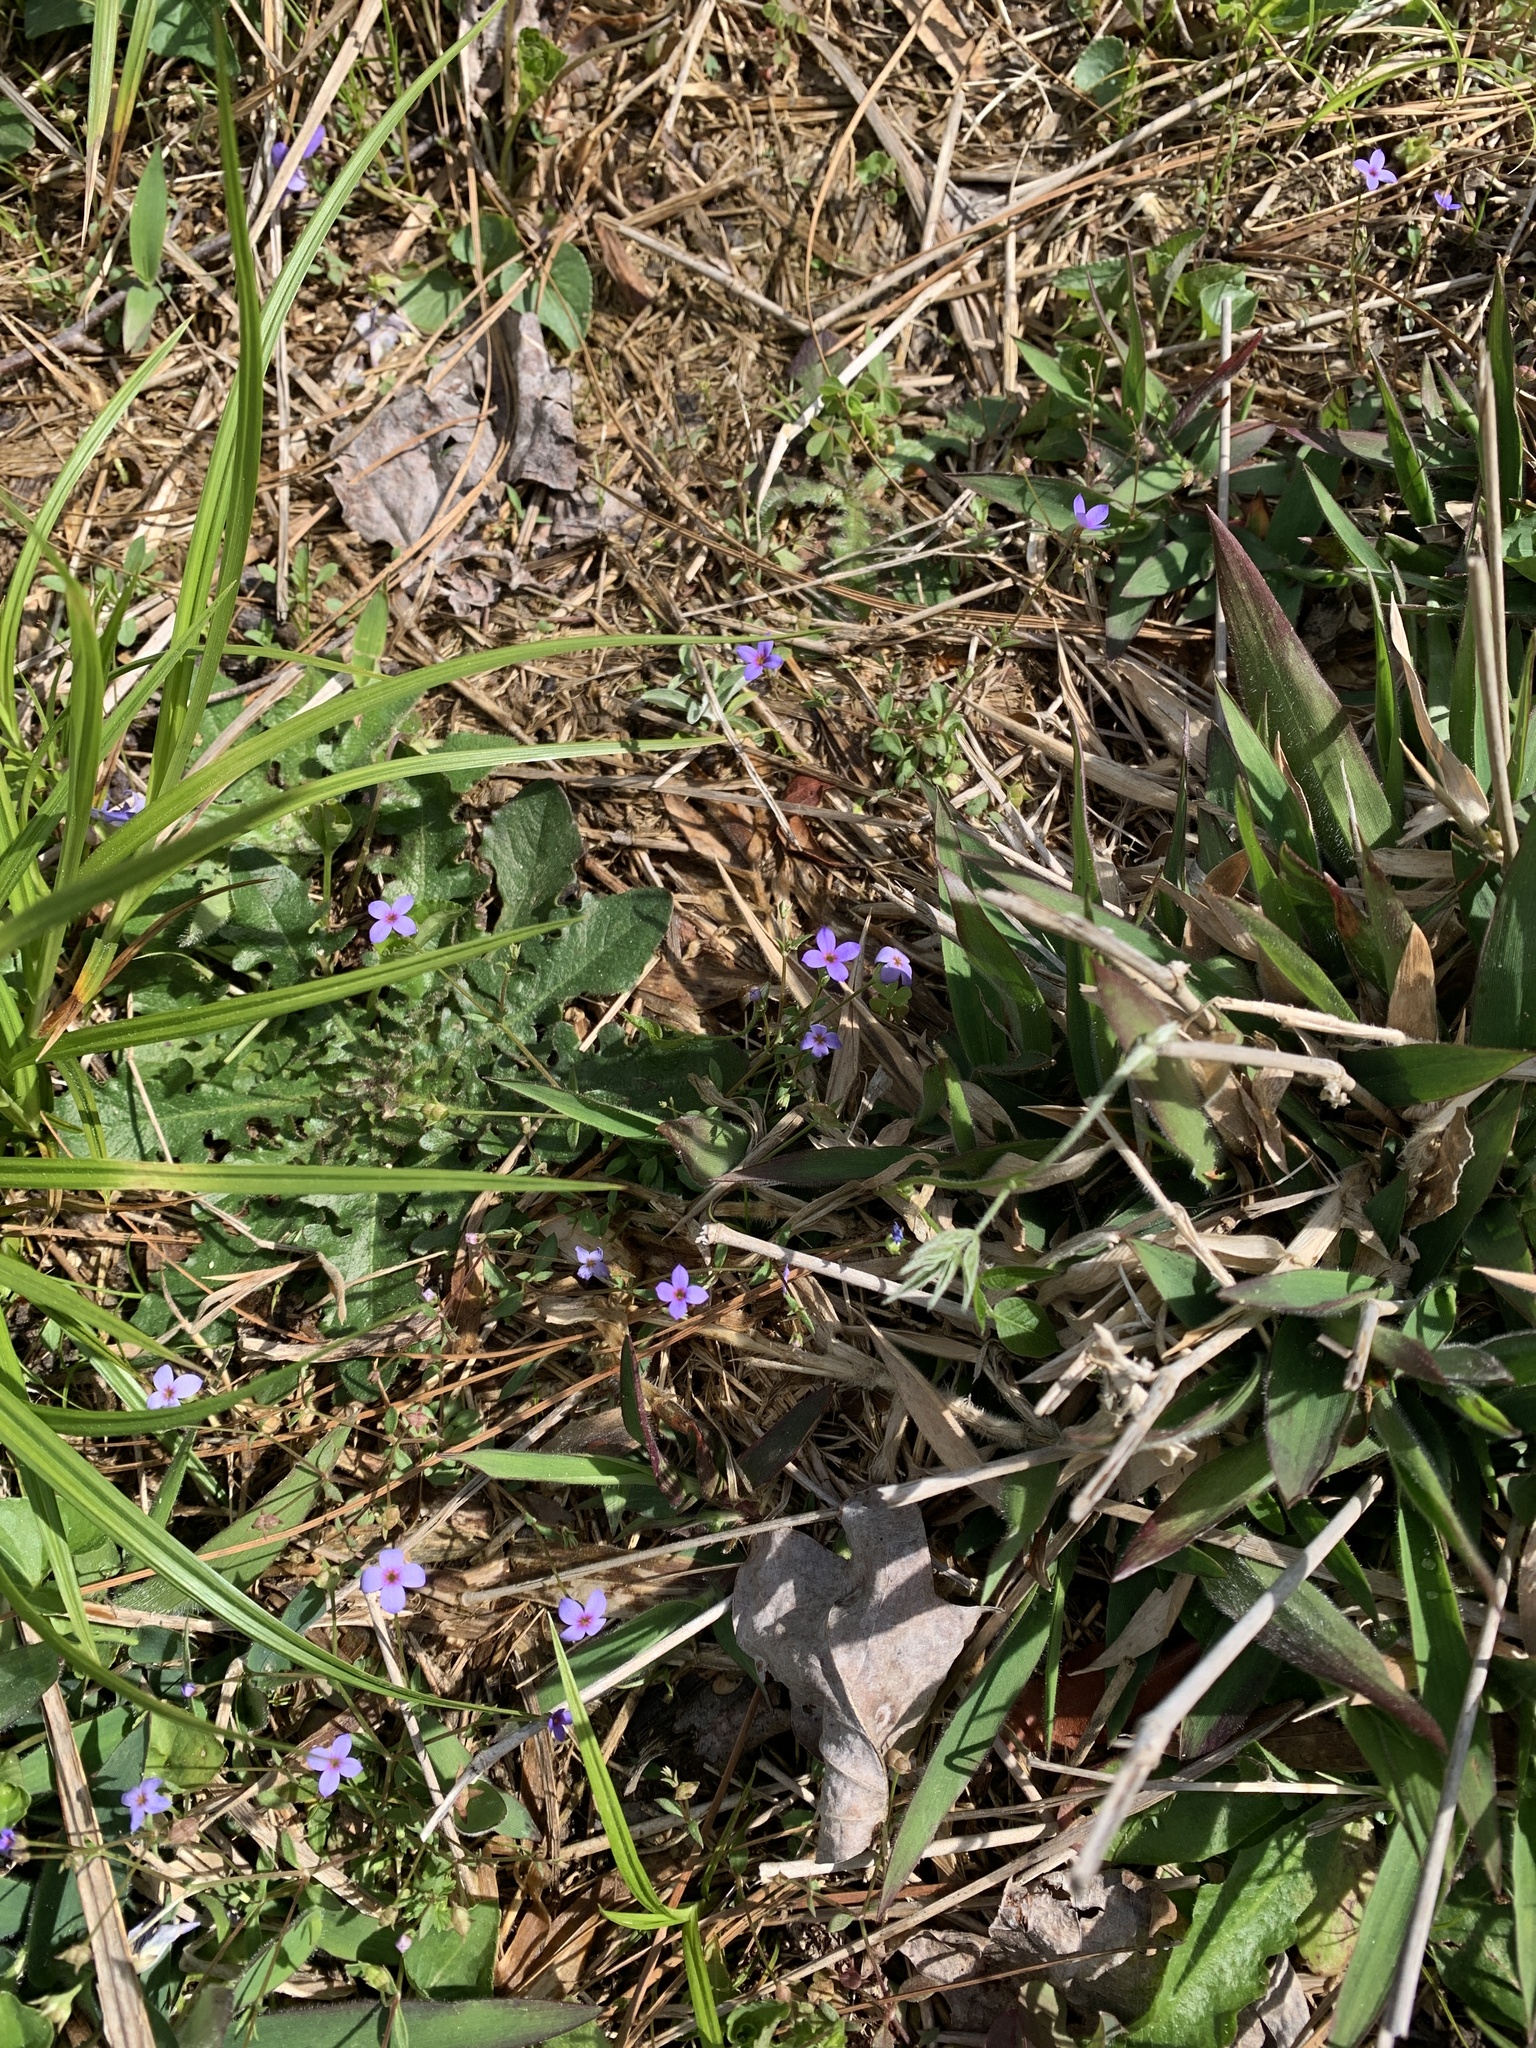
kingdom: Plantae
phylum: Tracheophyta
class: Magnoliopsida
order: Gentianales
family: Rubiaceae
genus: Houstonia
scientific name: Houstonia pusilla
